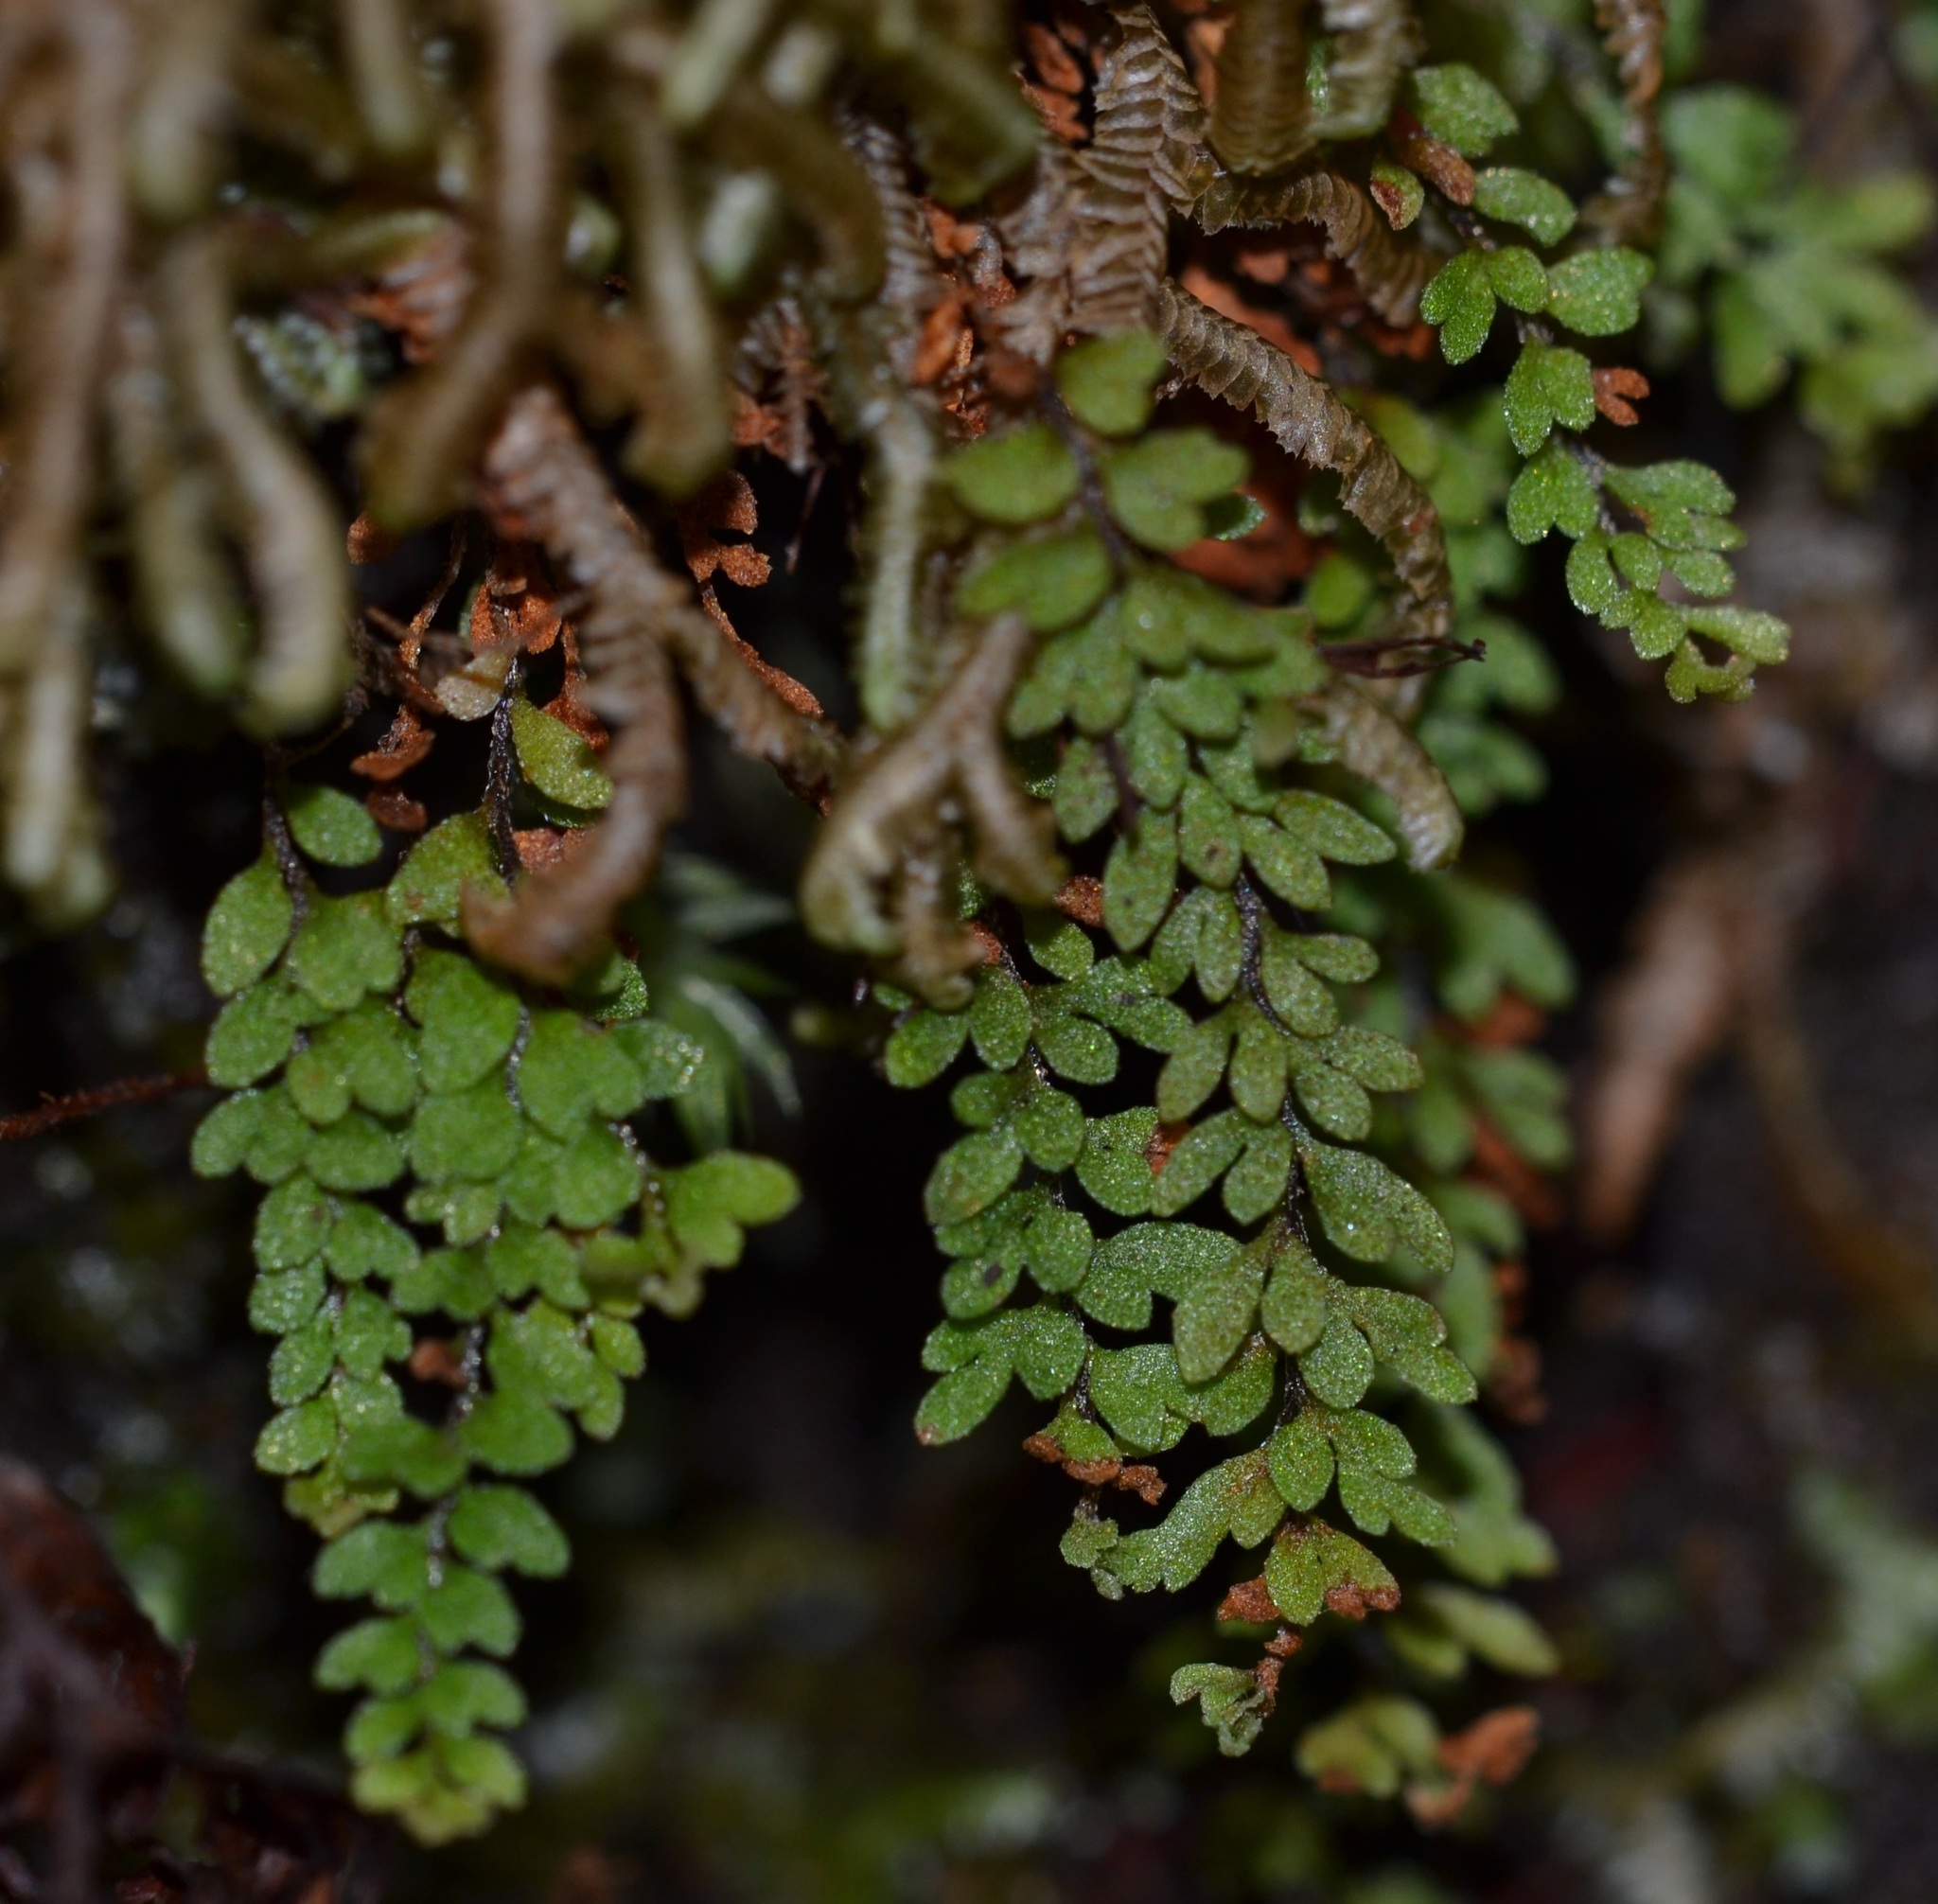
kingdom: Plantae
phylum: Tracheophyta
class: Polypodiopsida
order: Polypodiales
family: Polypodiaceae
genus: Adenophorus
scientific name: Adenophorus hymenophylloides
